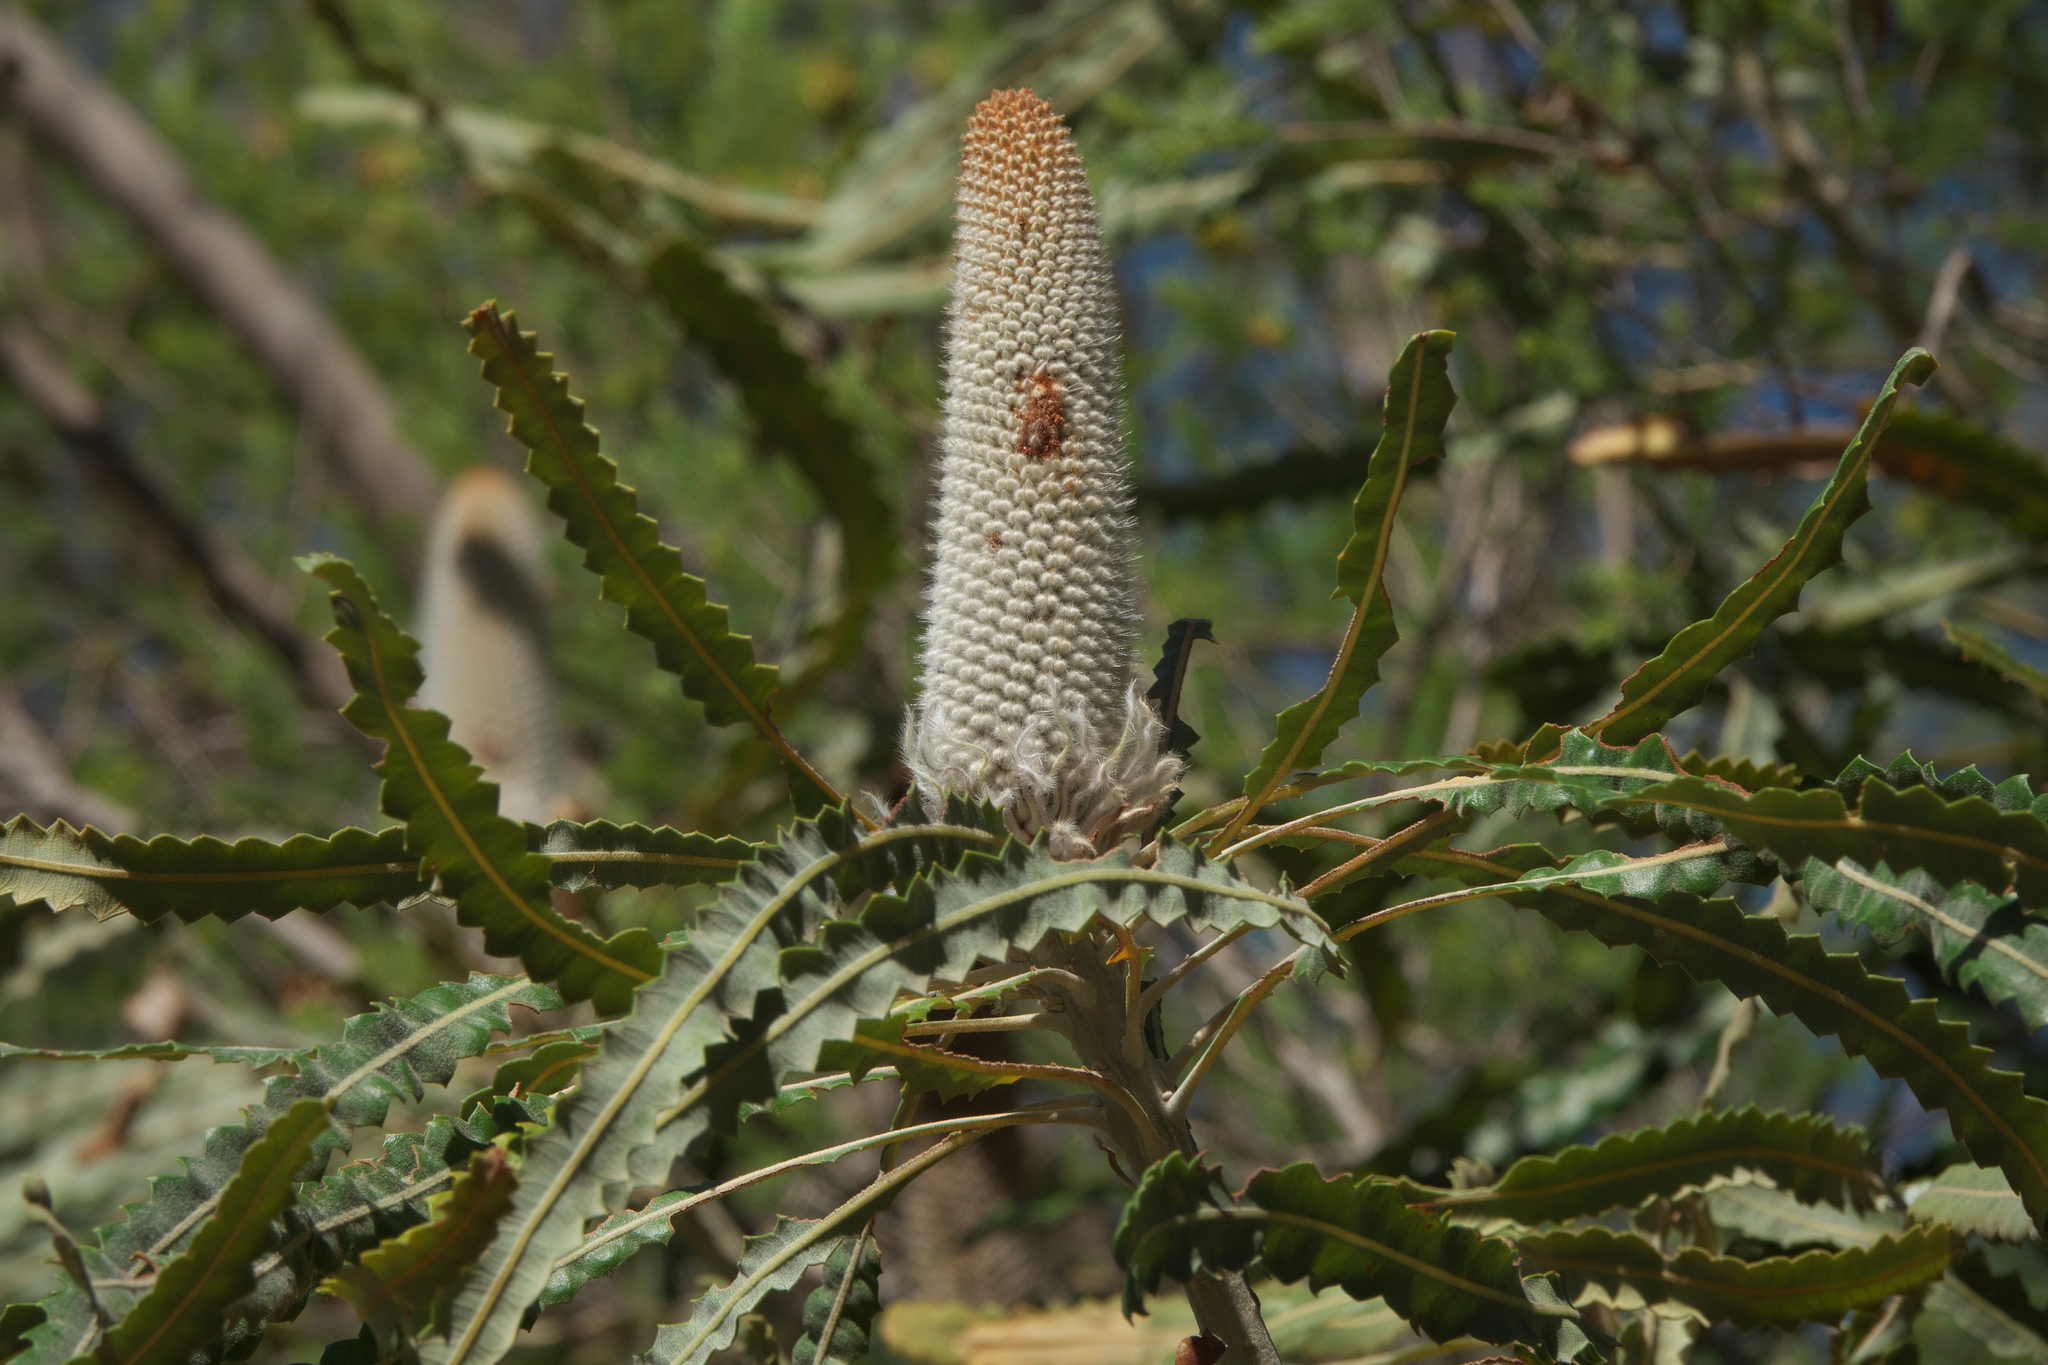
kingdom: Plantae
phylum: Tracheophyta
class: Magnoliopsida
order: Proteales
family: Proteaceae
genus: Banksia
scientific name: Banksia prionotes
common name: Acorn banksia
